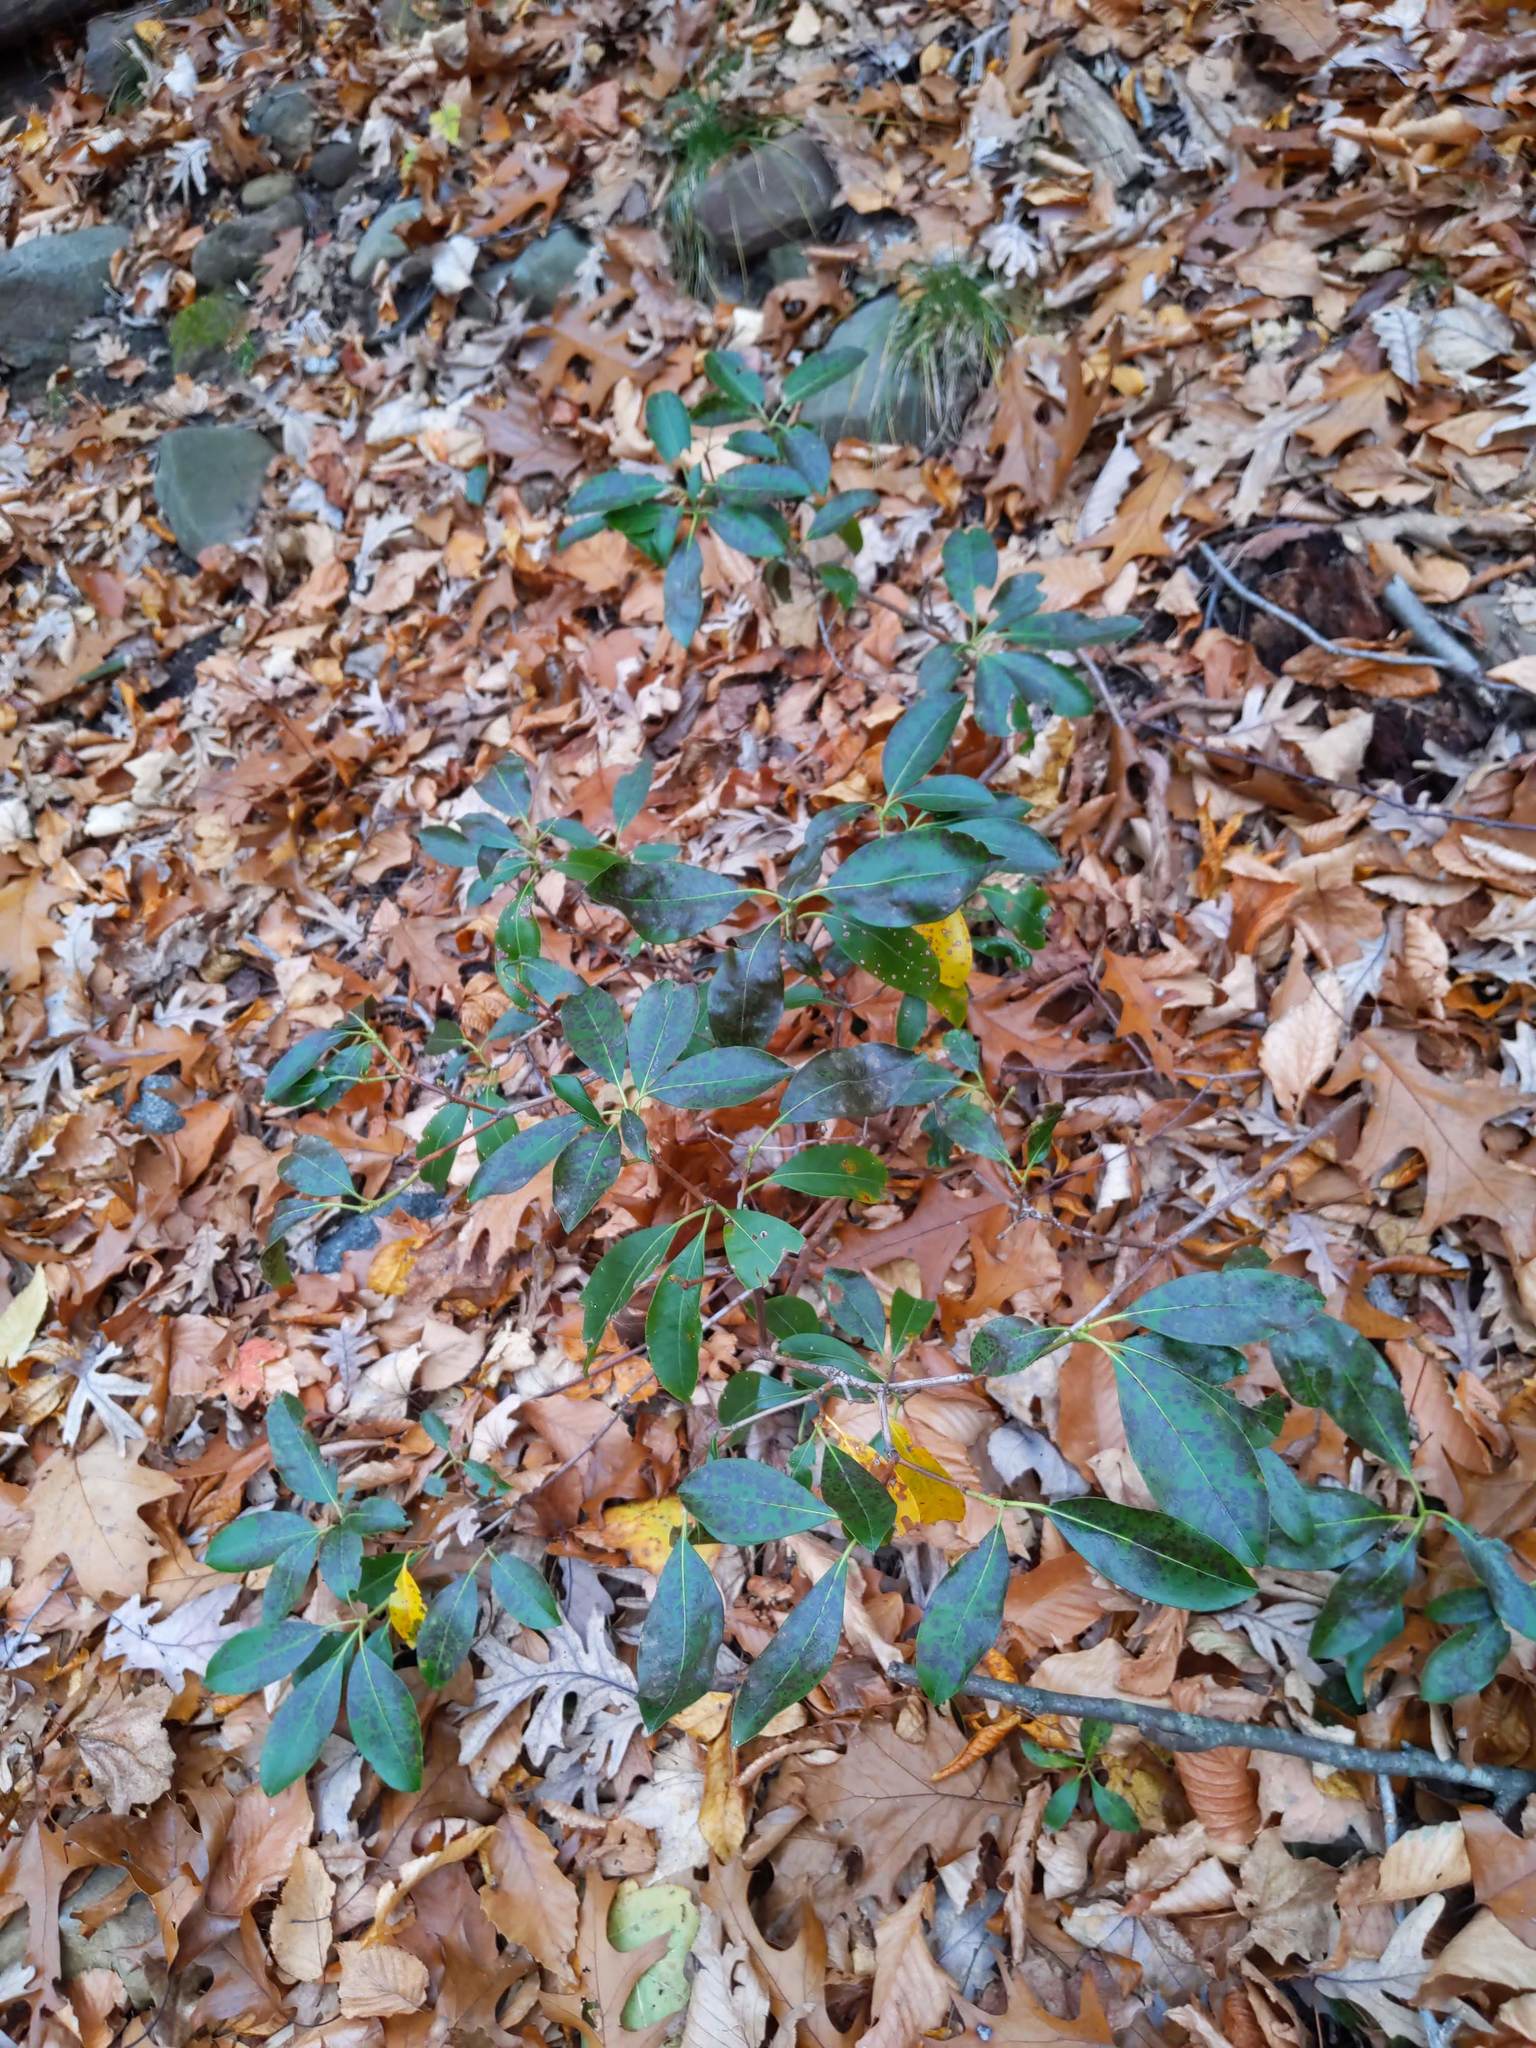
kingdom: Plantae
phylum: Tracheophyta
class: Magnoliopsida
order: Ericales
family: Ericaceae
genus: Kalmia
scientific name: Kalmia latifolia
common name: Mountain-laurel
